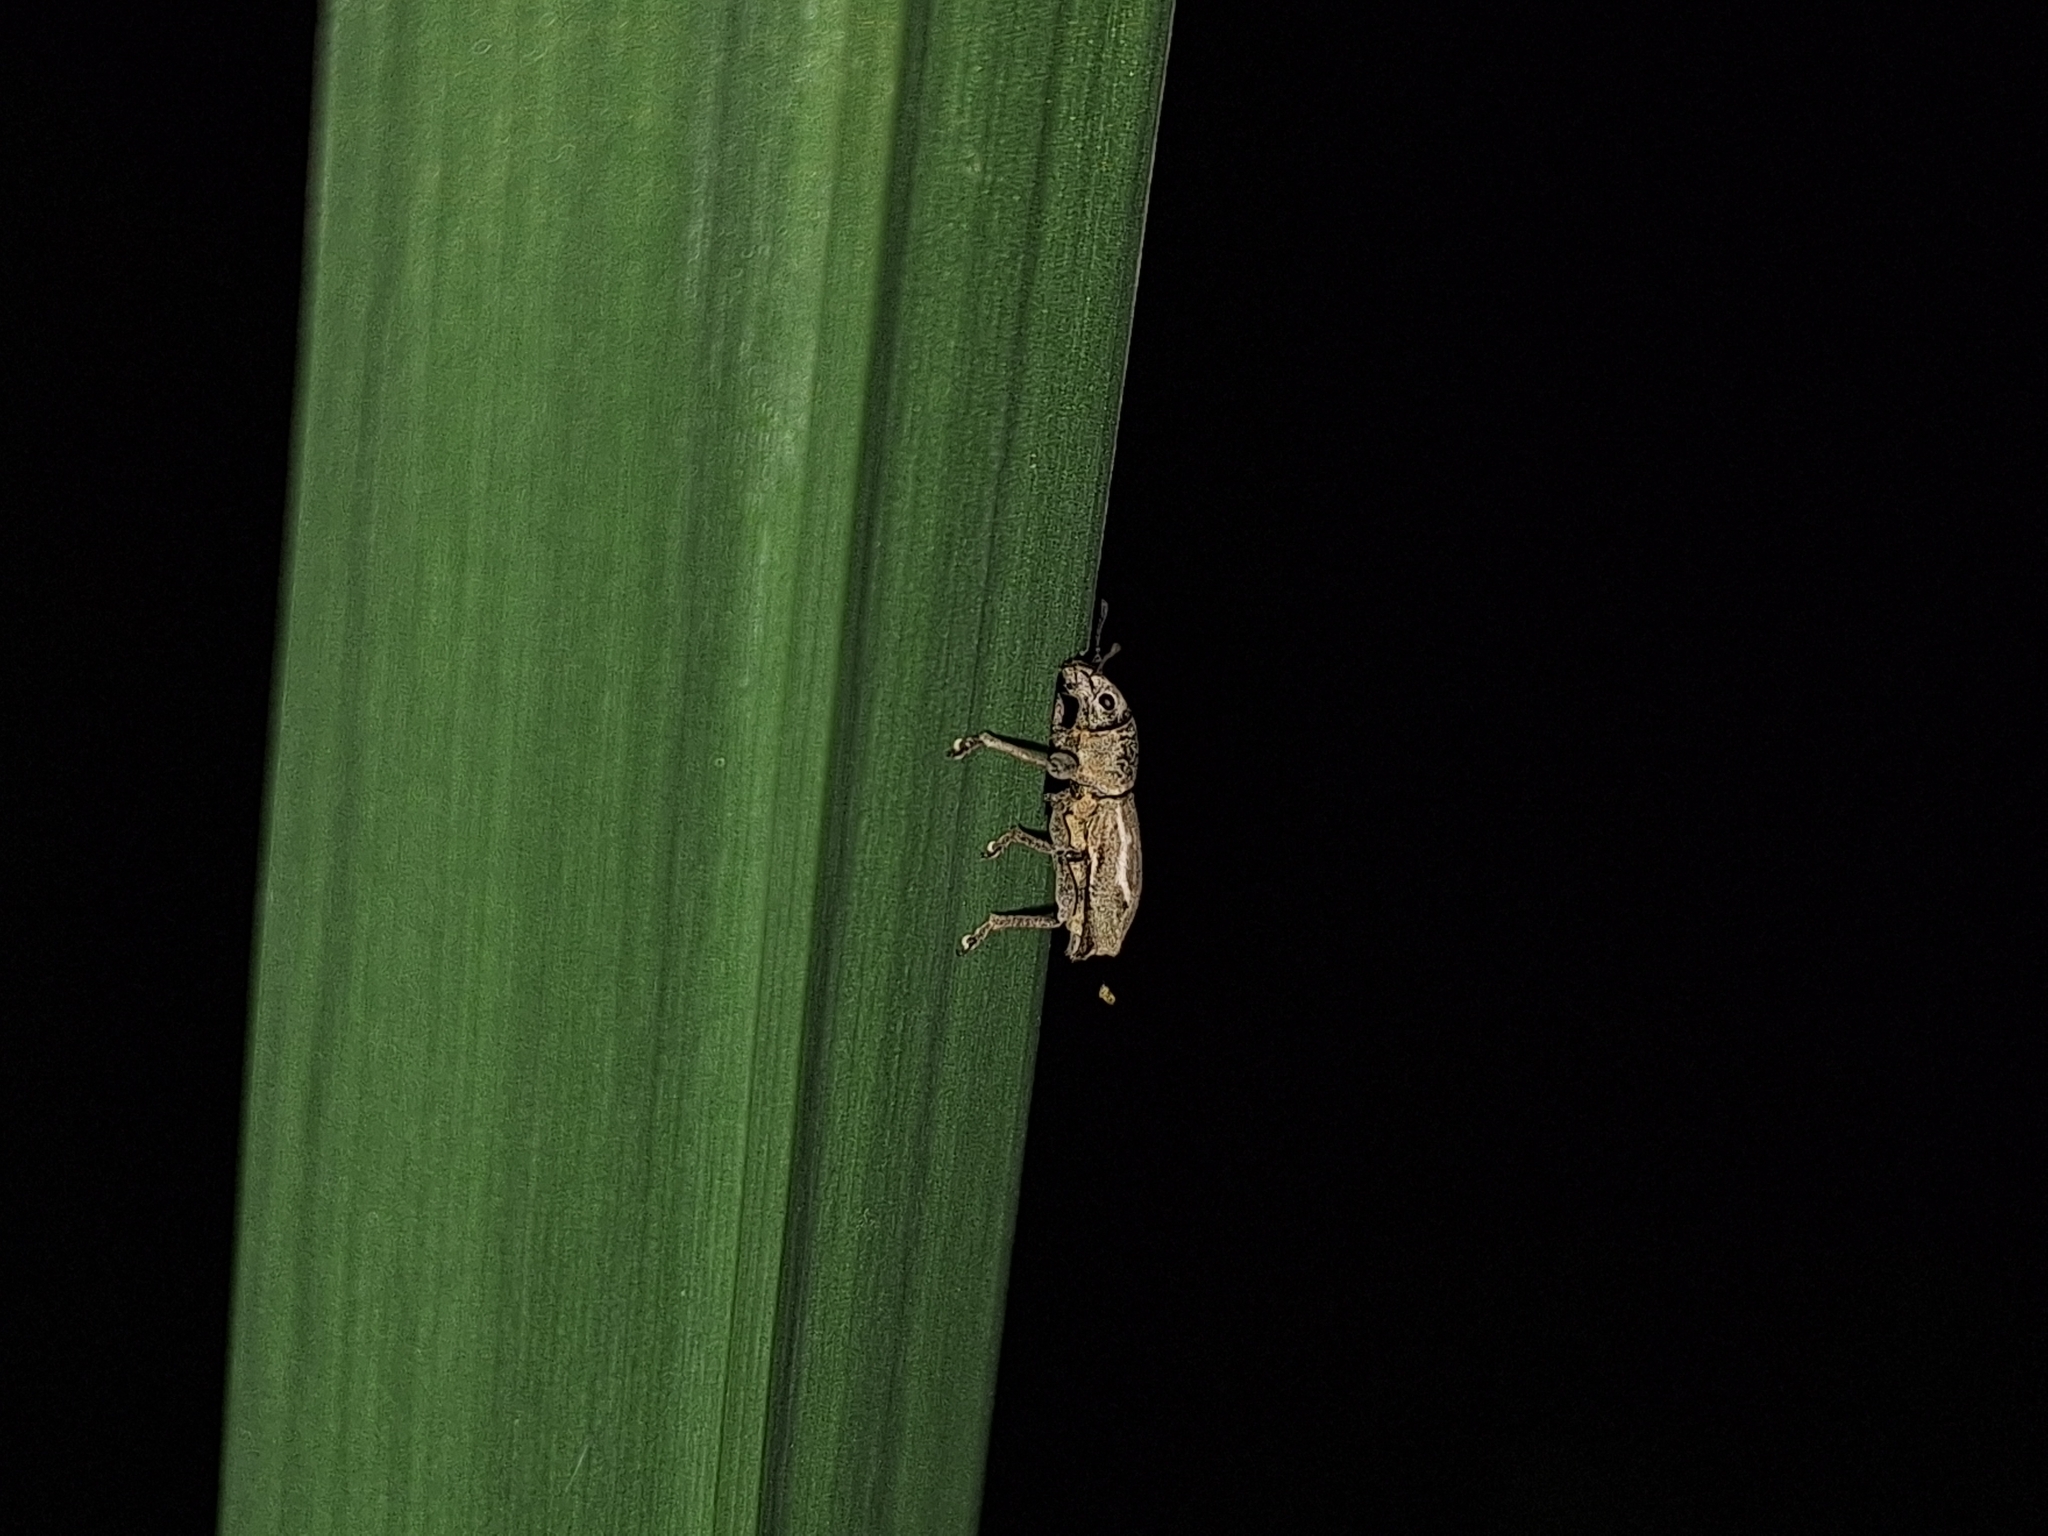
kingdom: Animalia
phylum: Arthropoda
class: Insecta
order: Coleoptera
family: Curculionidae
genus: Naupactus
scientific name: Naupactus dissimulator
